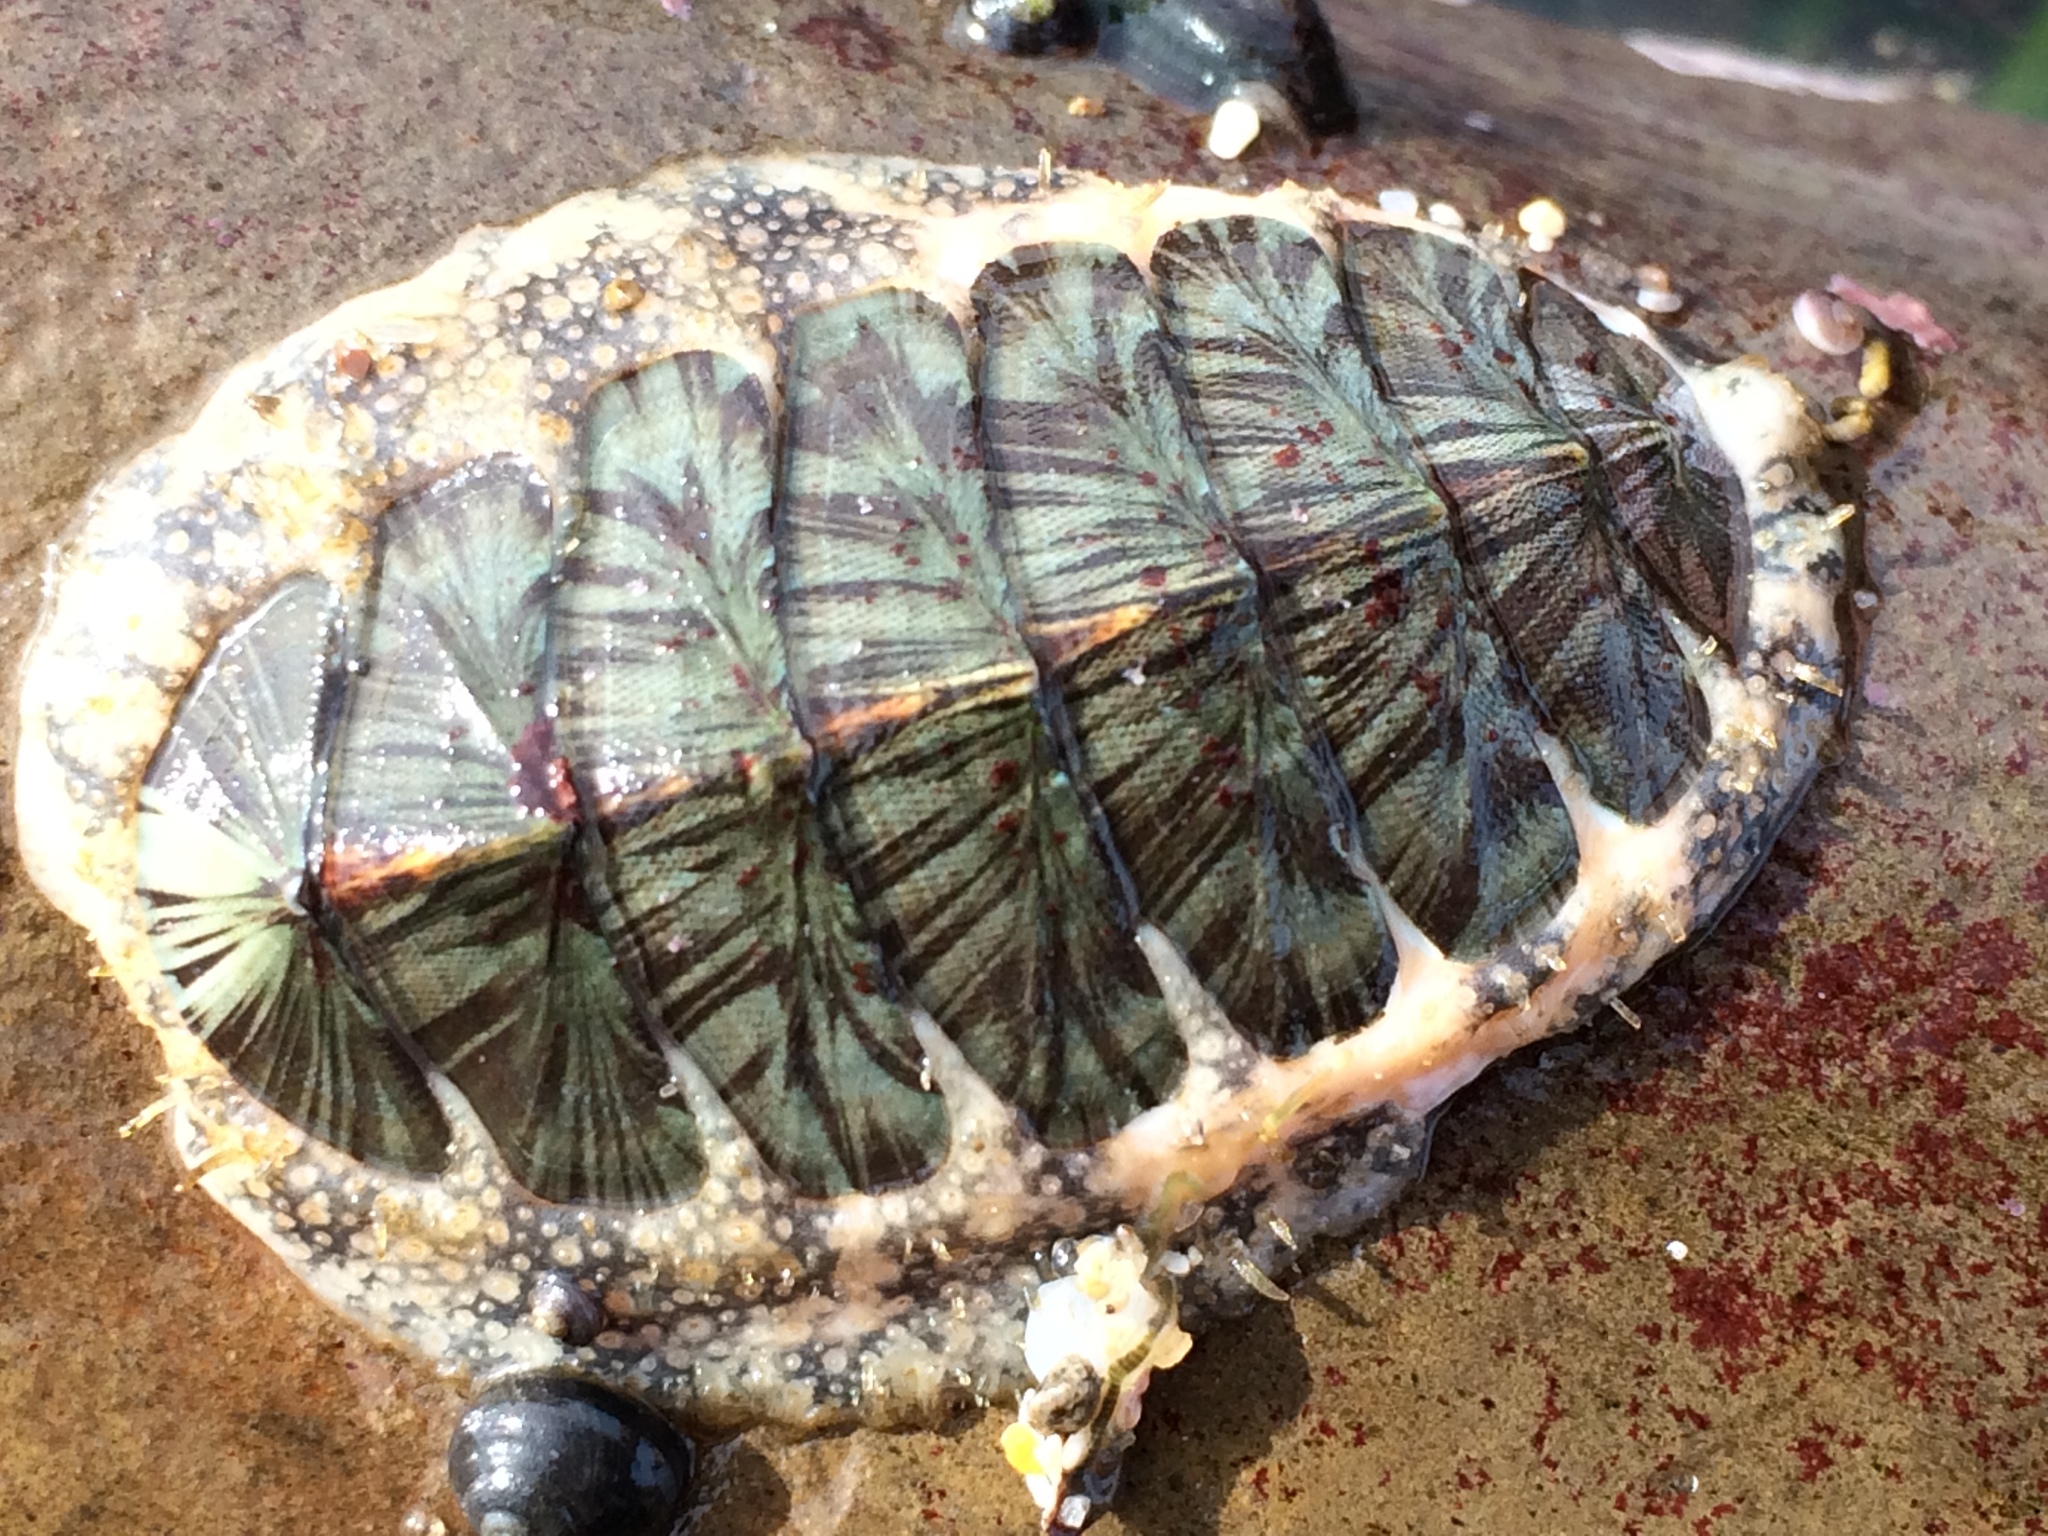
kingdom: Animalia
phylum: Mollusca
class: Polyplacophora
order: Chitonida
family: Mopaliidae
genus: Mopalia
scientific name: Mopalia lignosa
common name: Woody chiton
